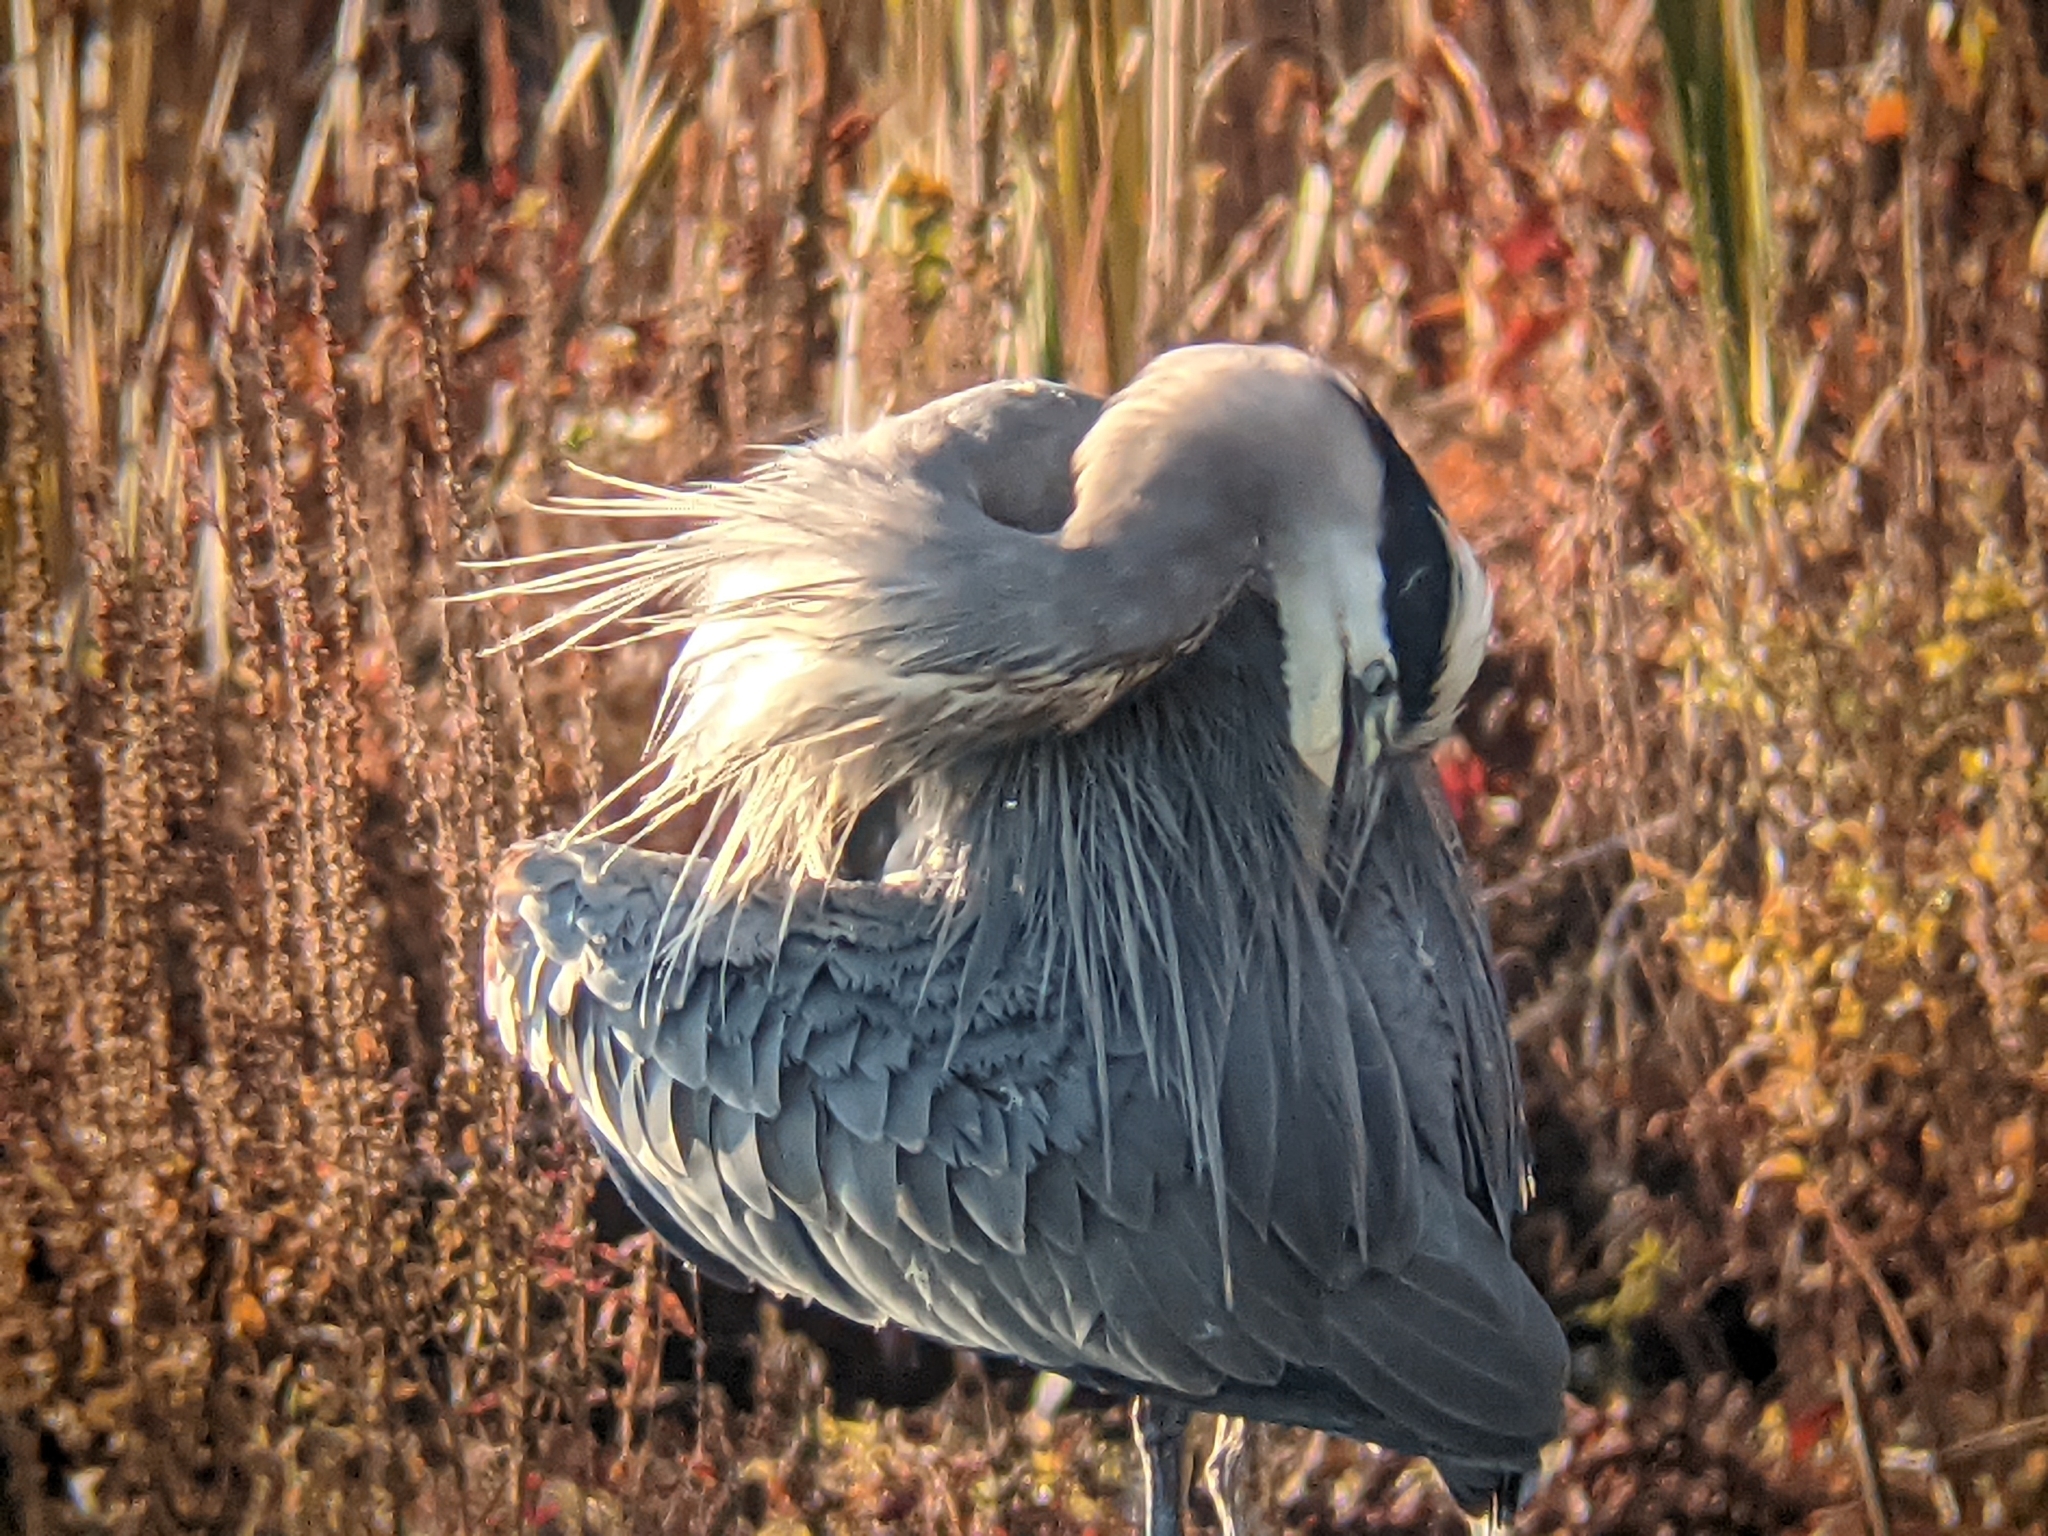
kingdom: Animalia
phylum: Chordata
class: Aves
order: Pelecaniformes
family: Ardeidae
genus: Ardea
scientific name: Ardea herodias
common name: Great blue heron
